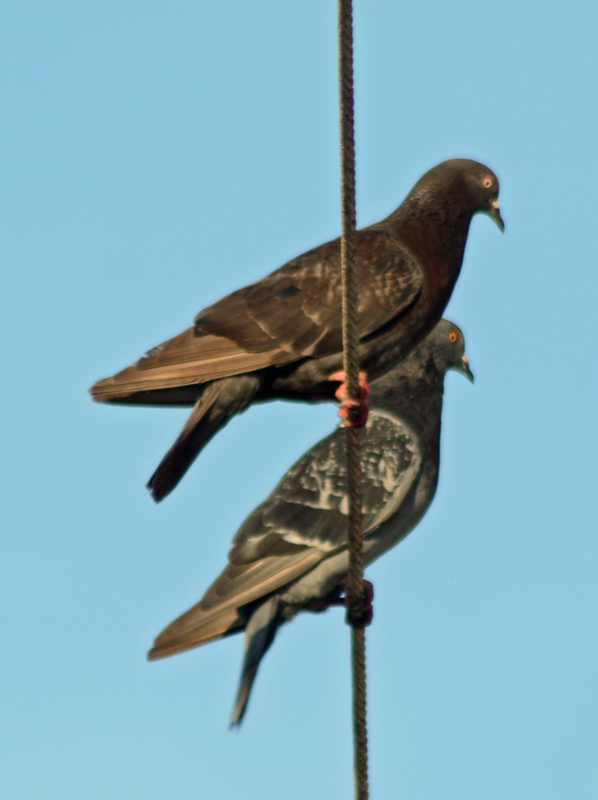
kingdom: Animalia
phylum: Chordata
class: Aves
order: Columbiformes
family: Columbidae
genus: Columba
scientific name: Columba livia
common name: Rock pigeon
